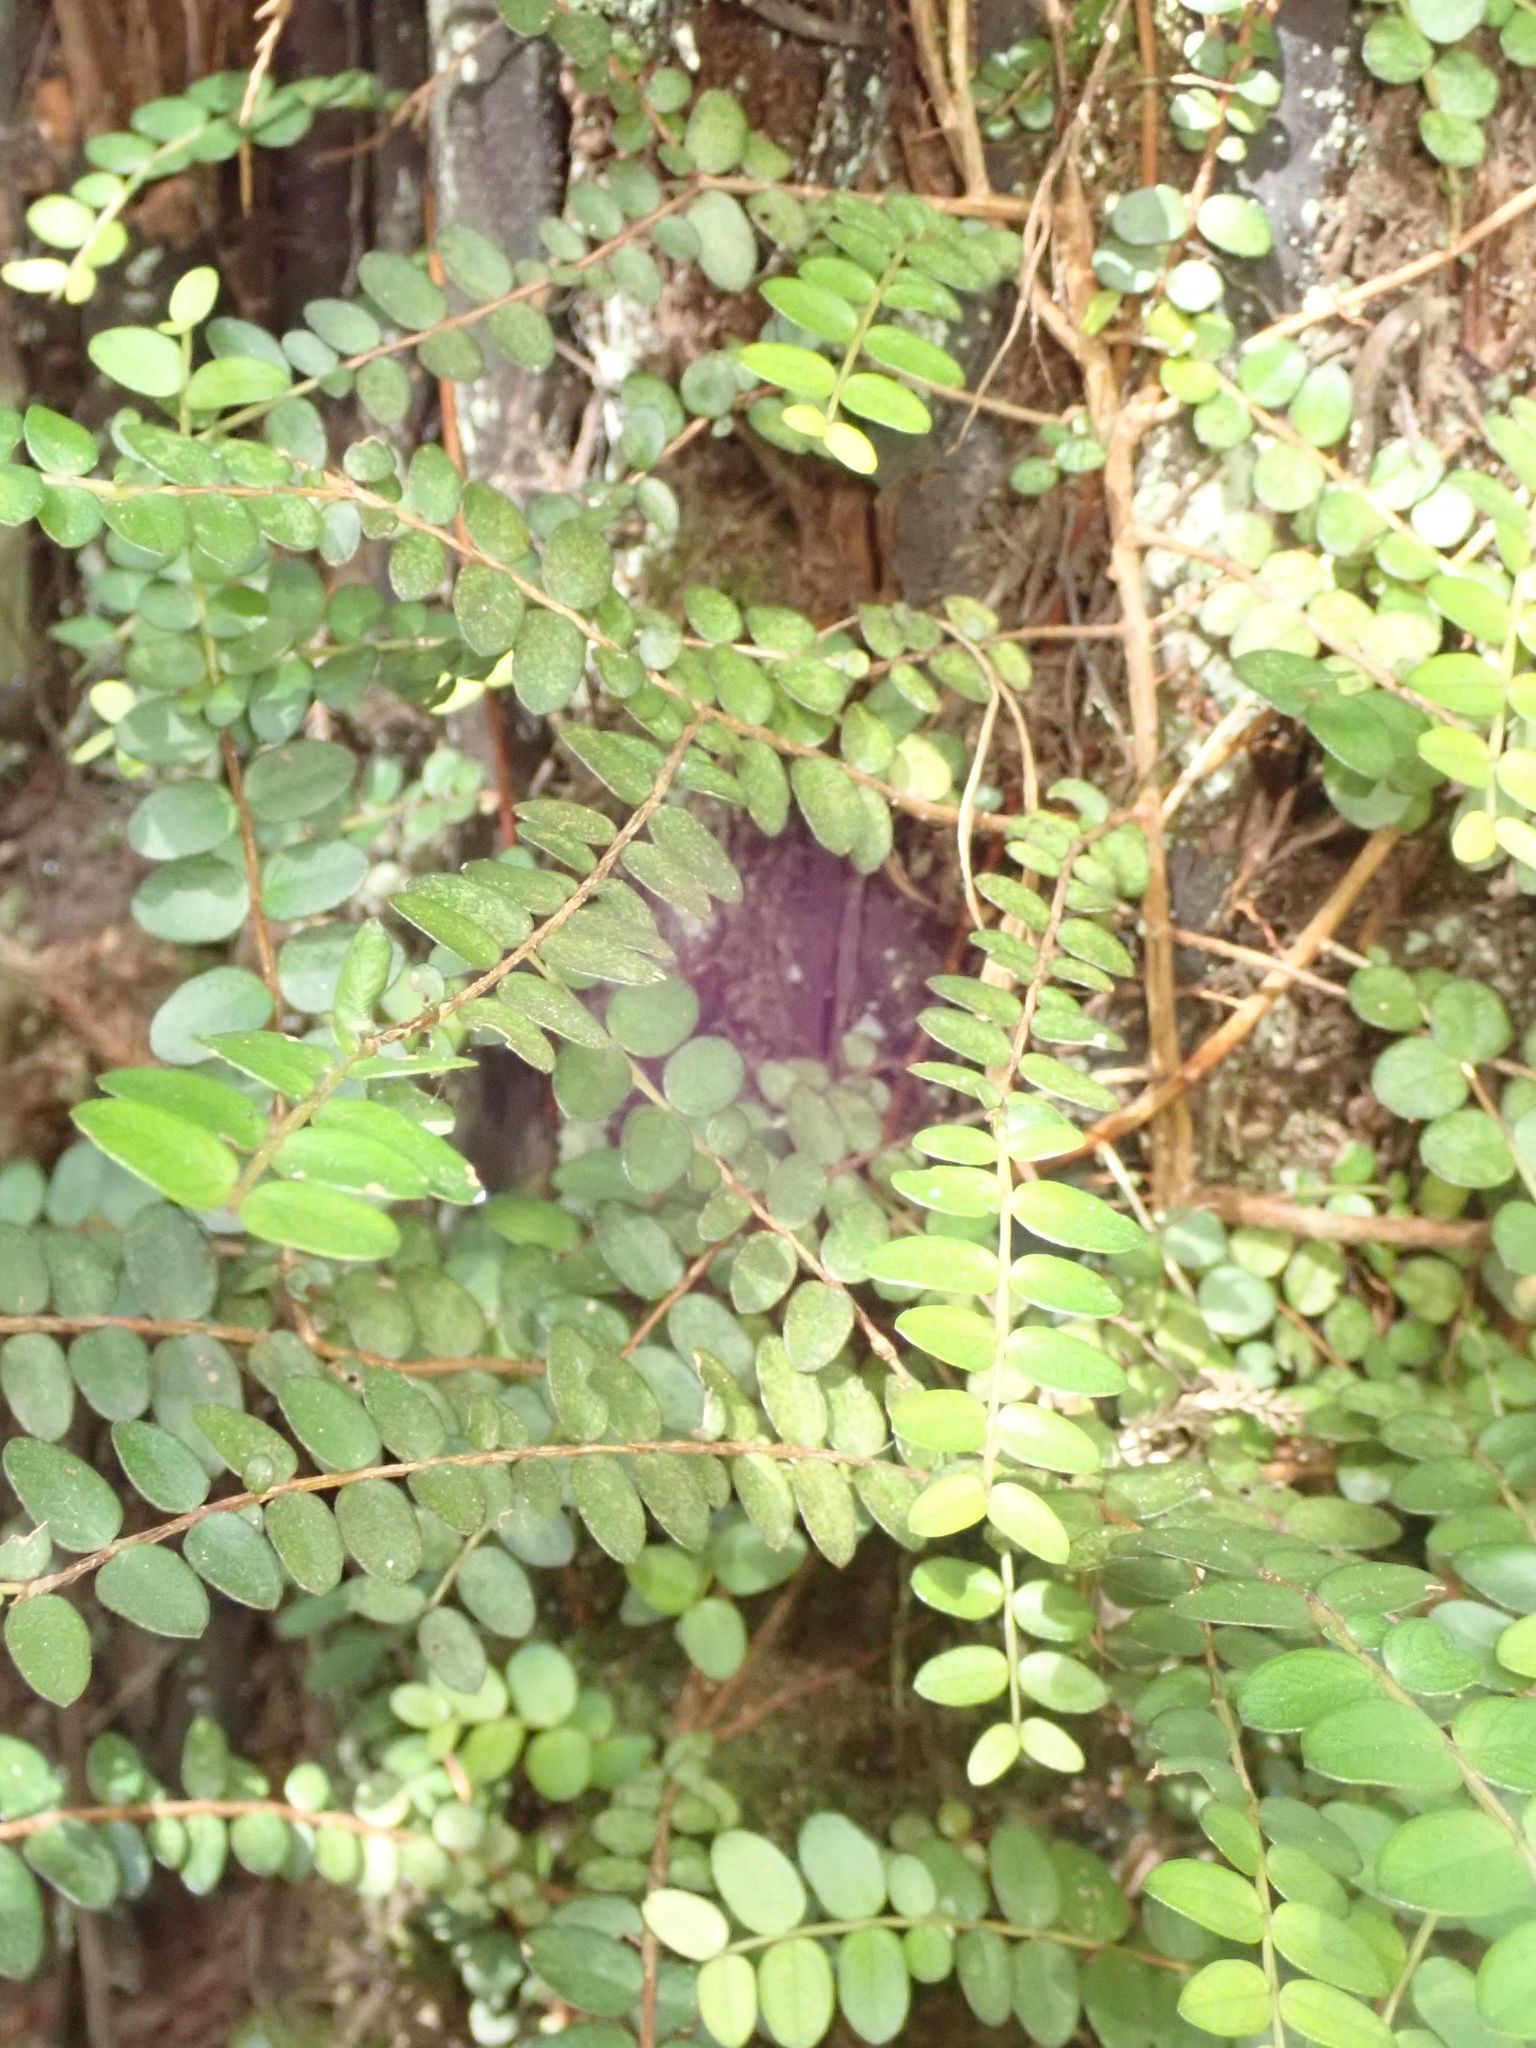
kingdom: Plantae
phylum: Tracheophyta
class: Magnoliopsida
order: Myrtales
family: Myrtaceae
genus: Metrosideros
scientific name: Metrosideros diffusa
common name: Small ratavine
